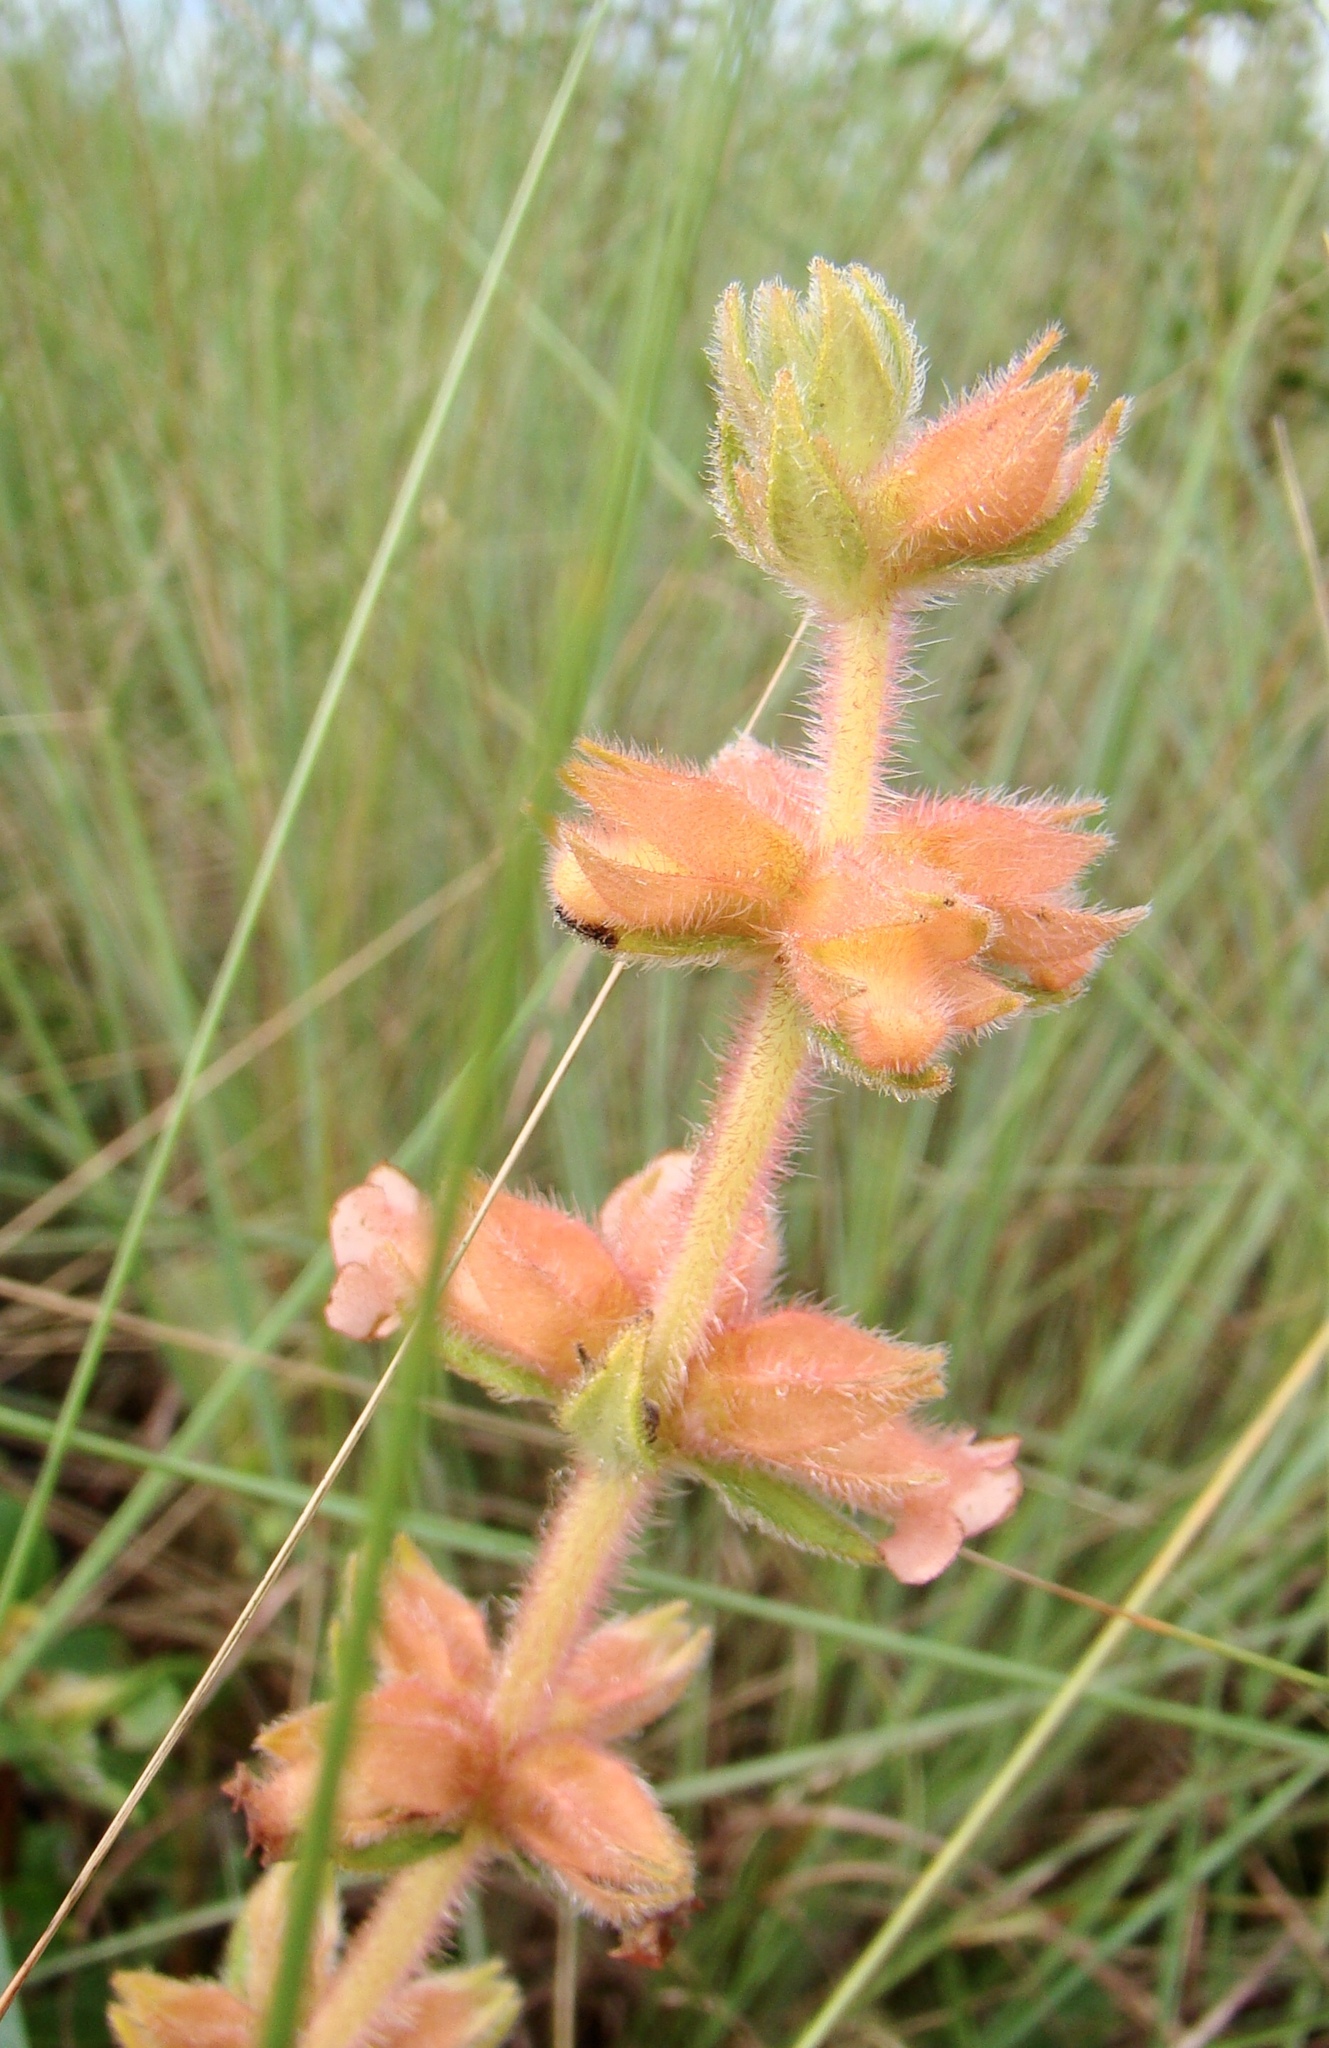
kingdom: Plantae
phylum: Tracheophyta
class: Magnoliopsida
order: Lamiales
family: Gesneriaceae
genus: Sinningia
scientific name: Sinningia allagophylla
